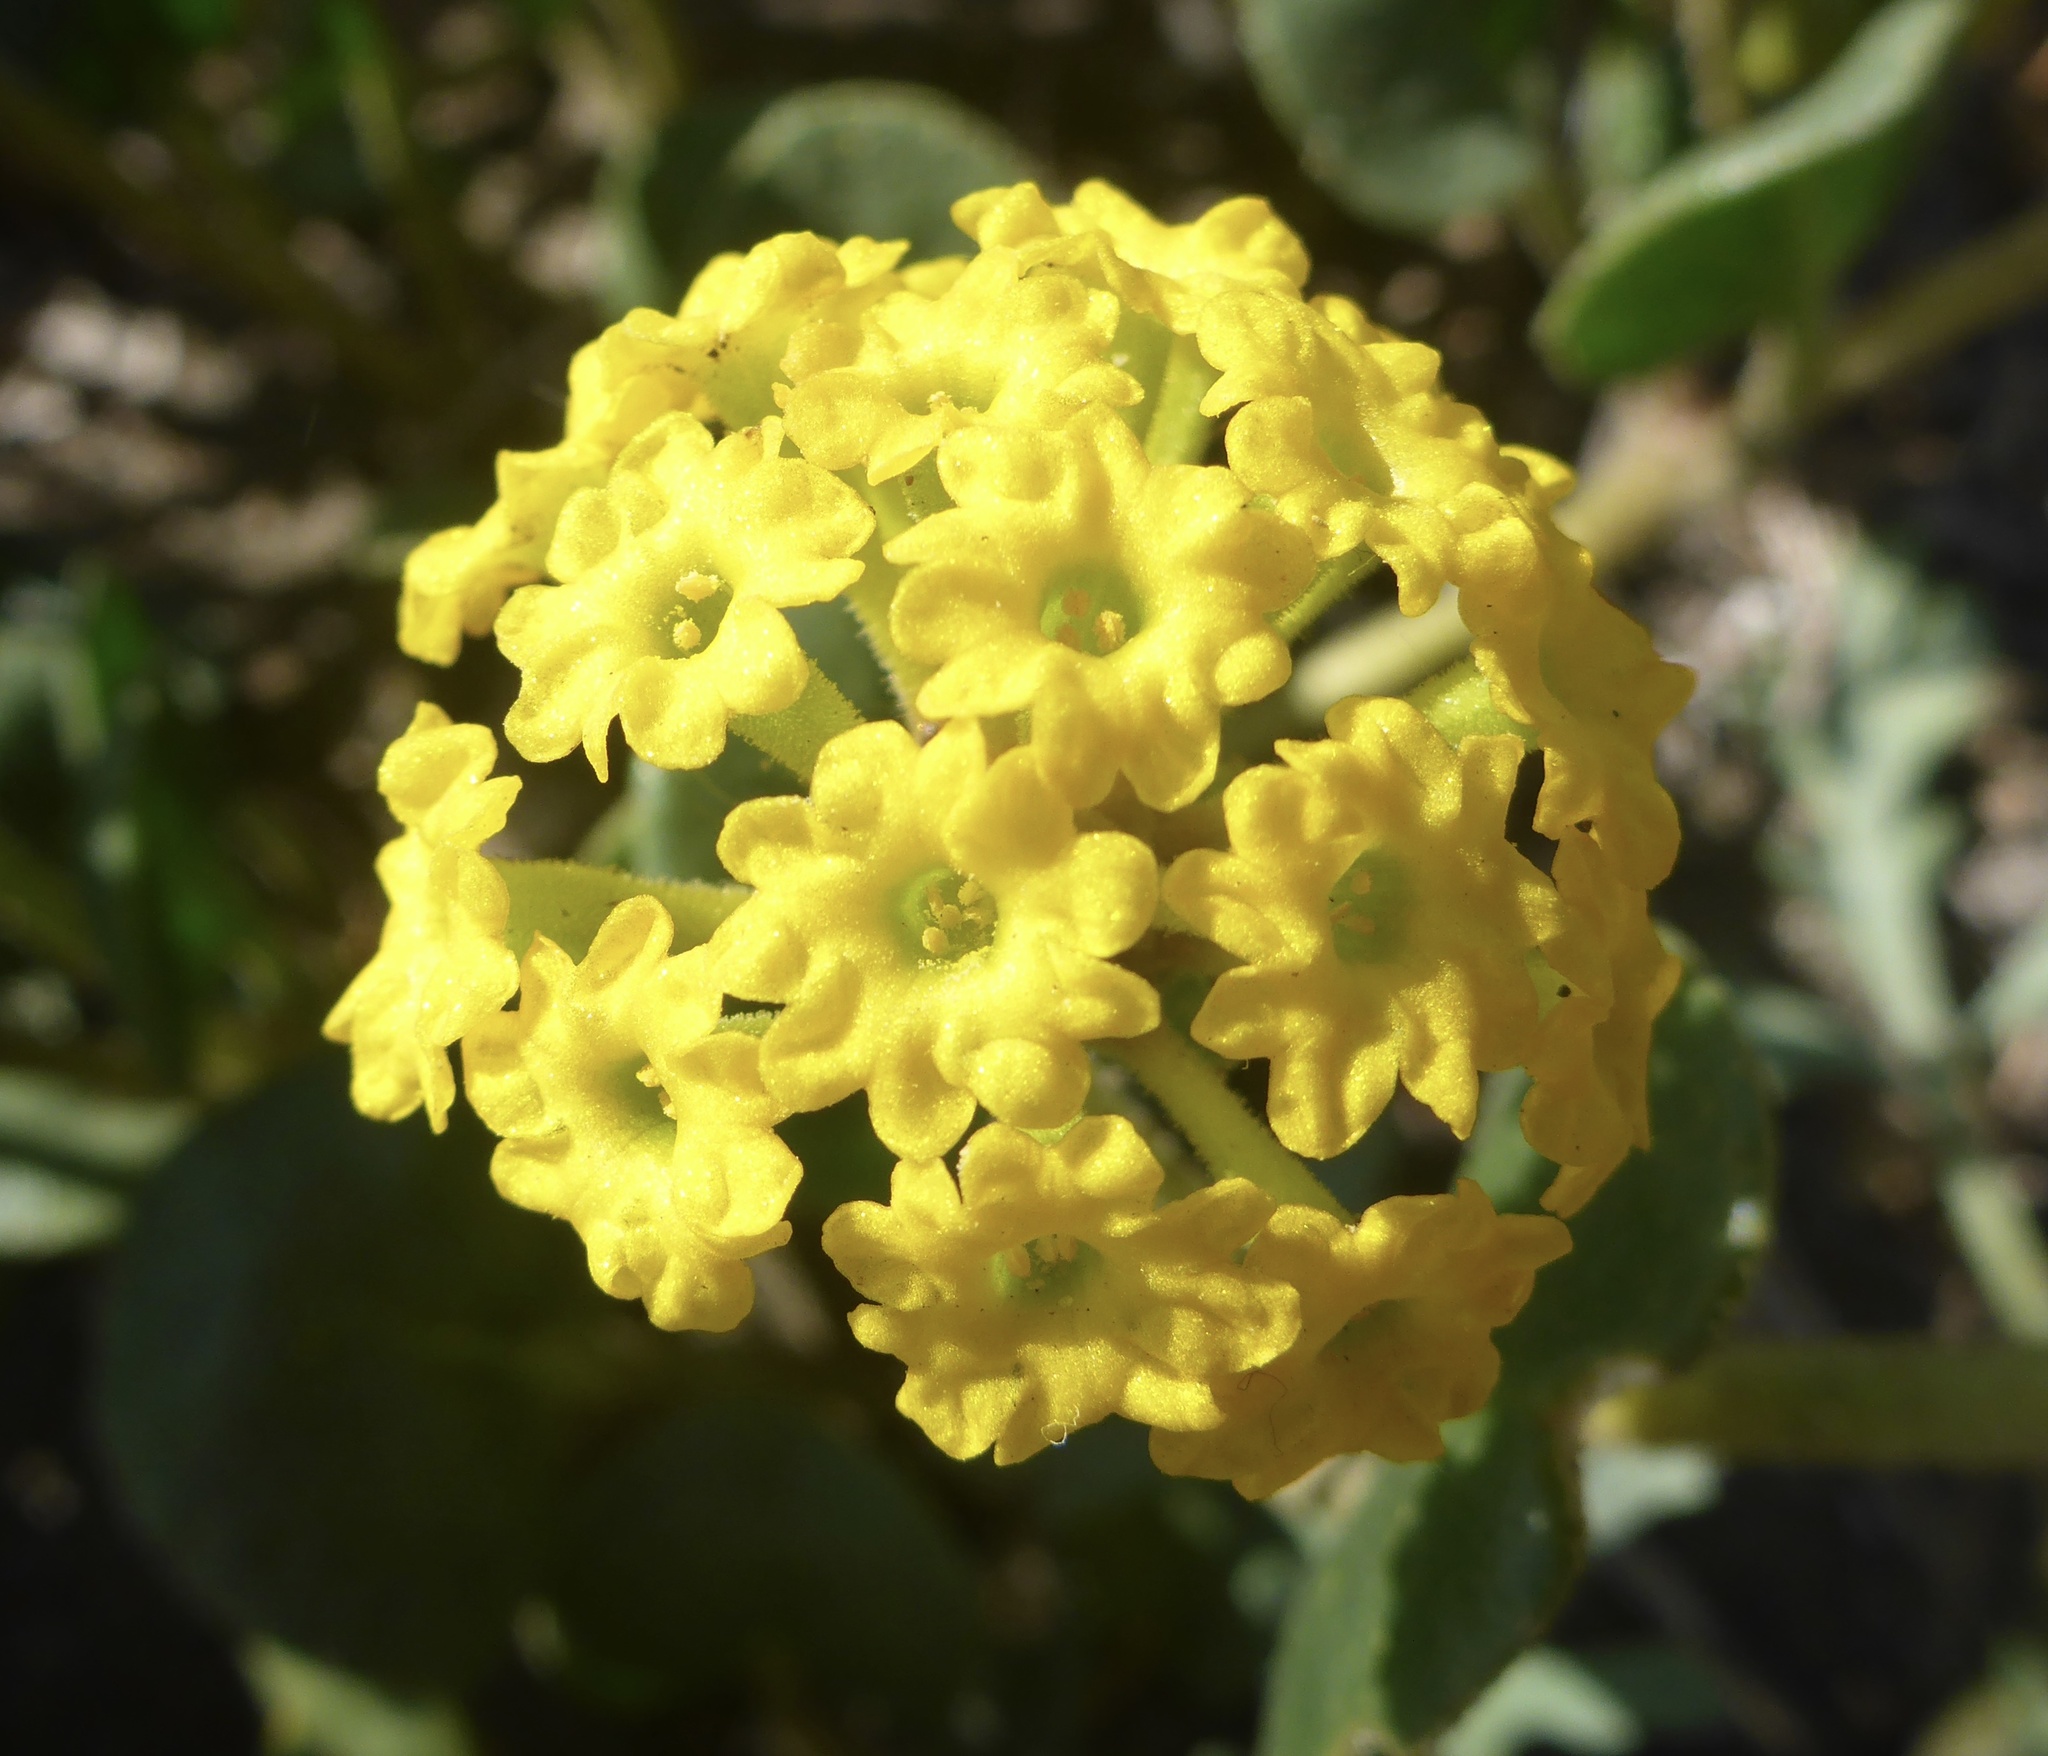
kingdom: Plantae
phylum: Tracheophyta
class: Magnoliopsida
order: Caryophyllales
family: Nyctaginaceae
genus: Abronia
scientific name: Abronia latifolia
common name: Yellow sand-verbena
